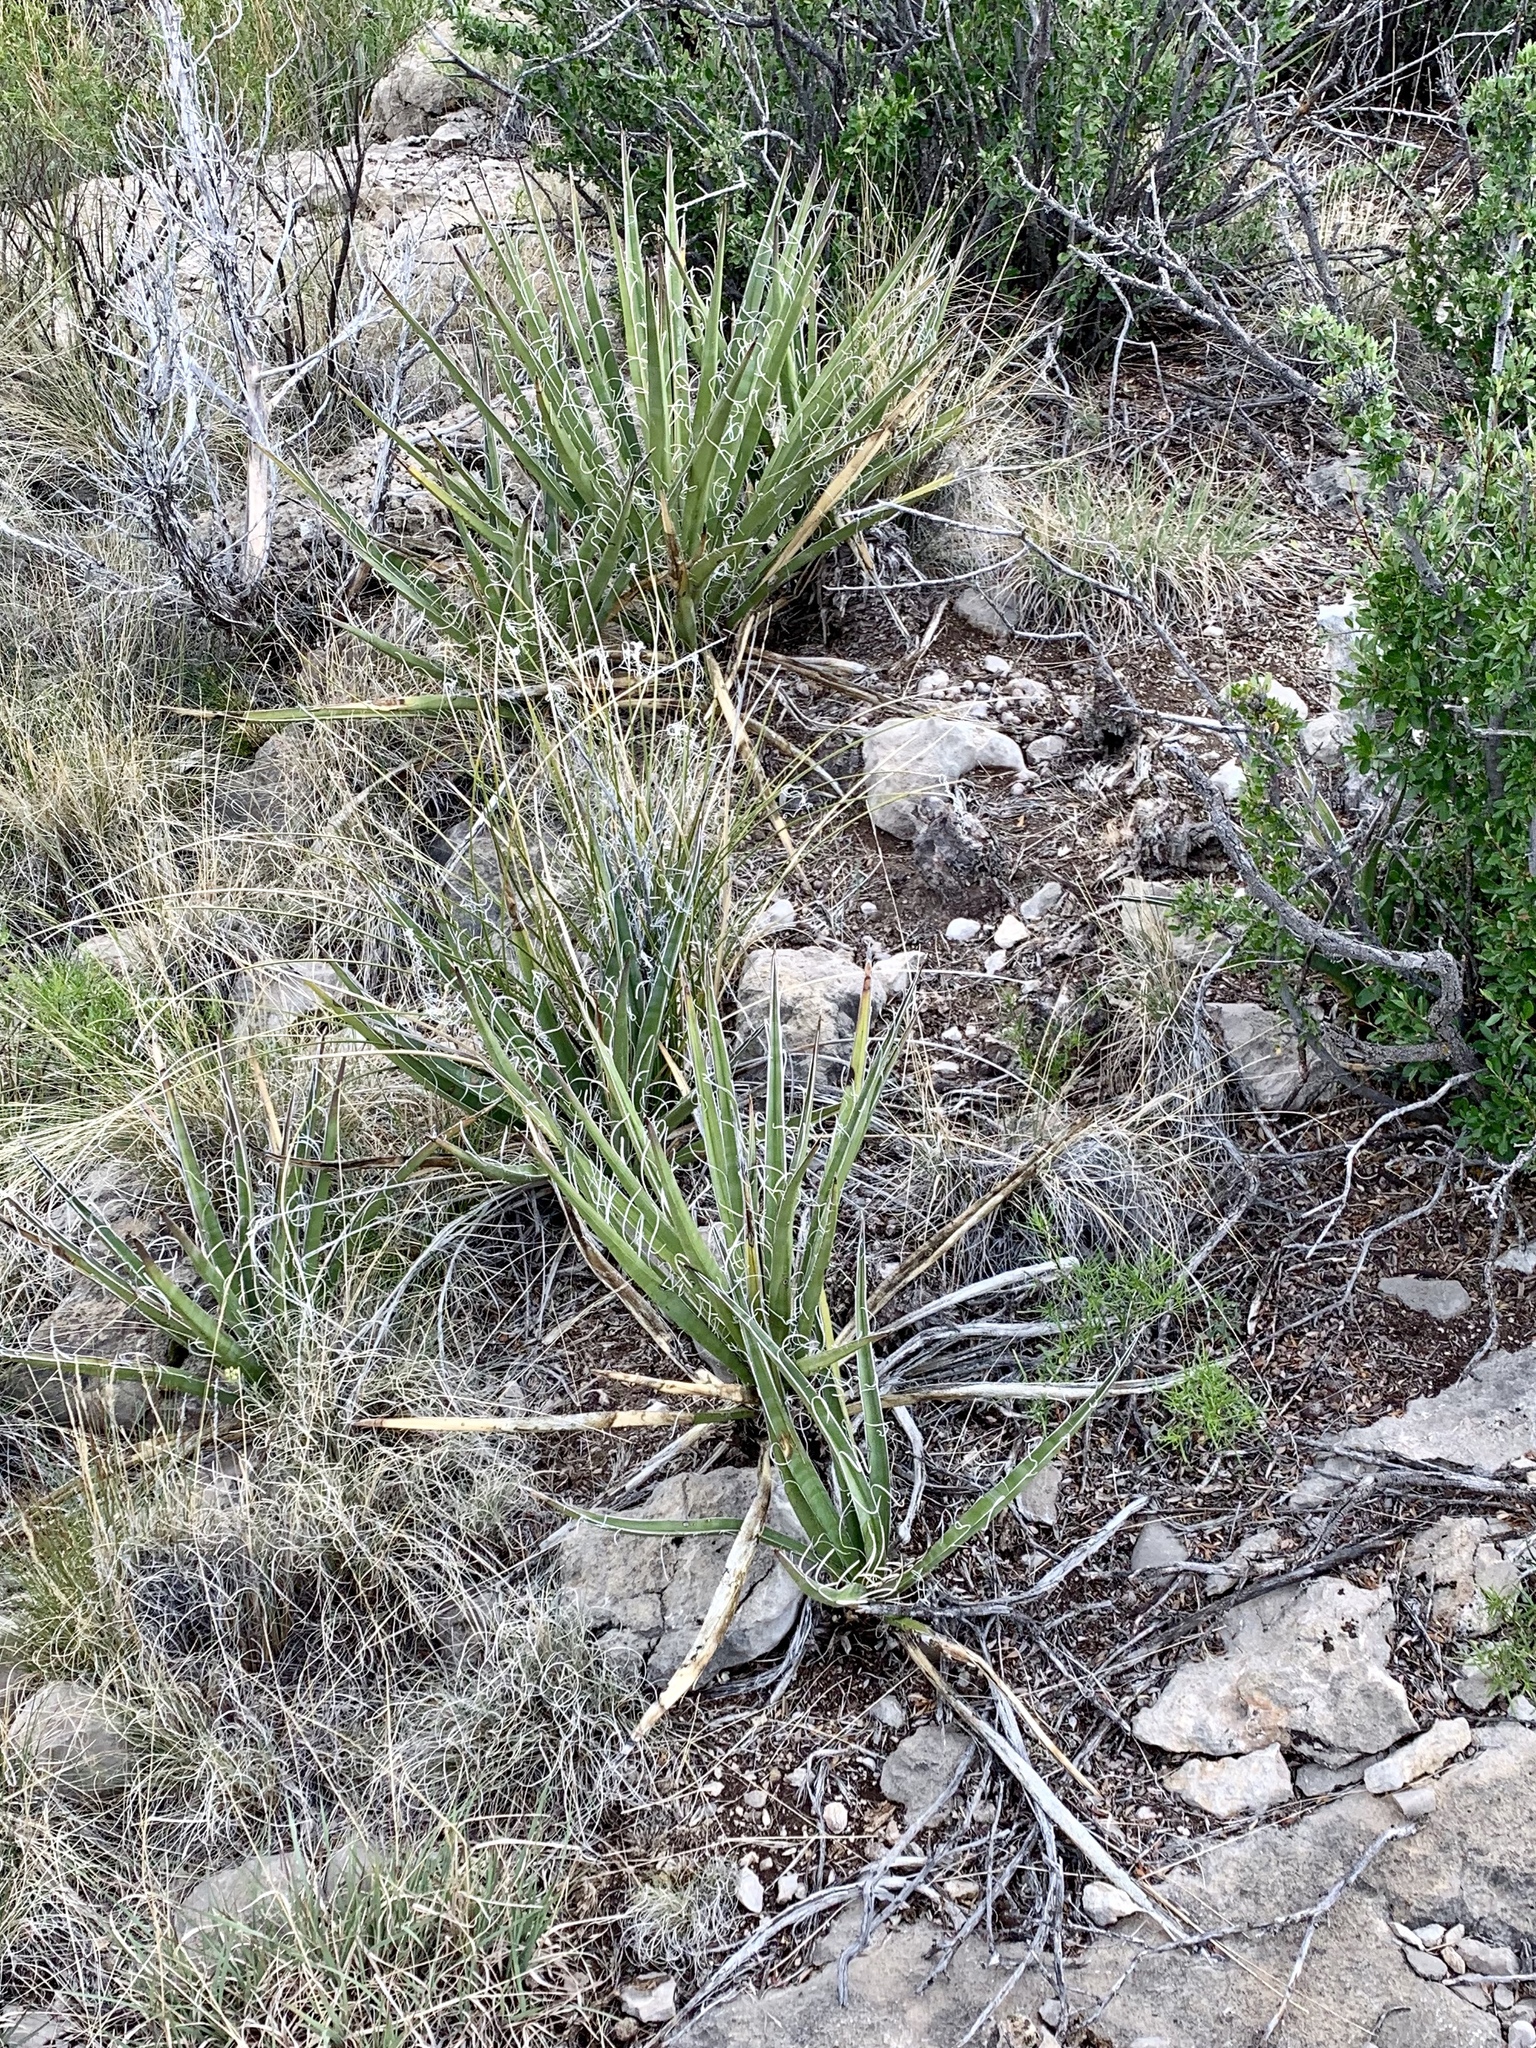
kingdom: Plantae
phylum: Tracheophyta
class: Liliopsida
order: Asparagales
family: Asparagaceae
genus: Yucca
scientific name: Yucca baccata
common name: Banana yucca
